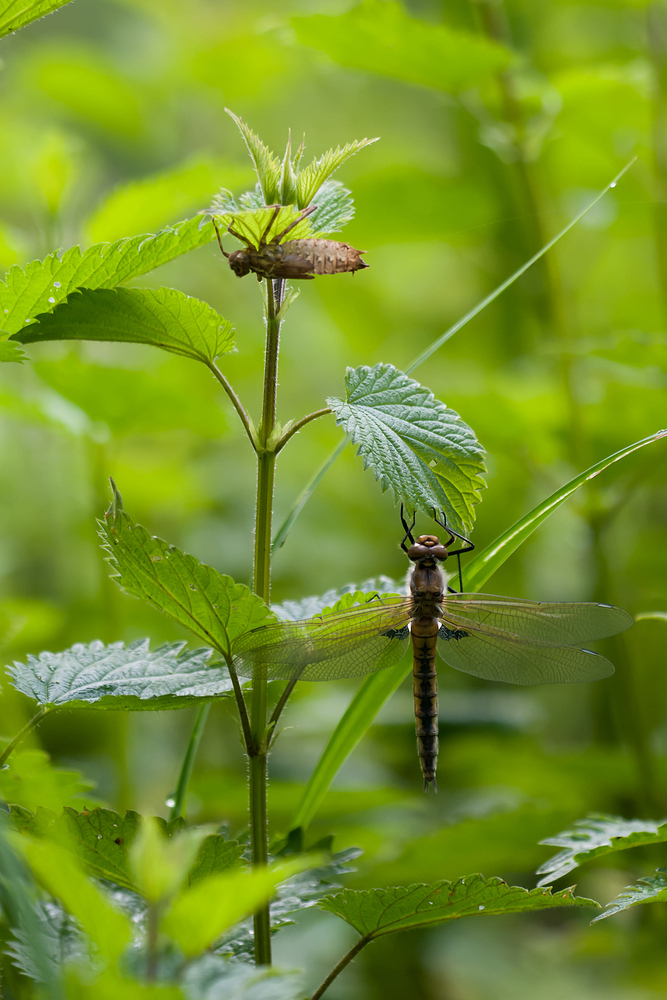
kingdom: Animalia
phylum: Arthropoda
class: Insecta
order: Odonata
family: Corduliidae
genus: Epitheca
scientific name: Epitheca bimaculata
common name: Eurasian baskettail
